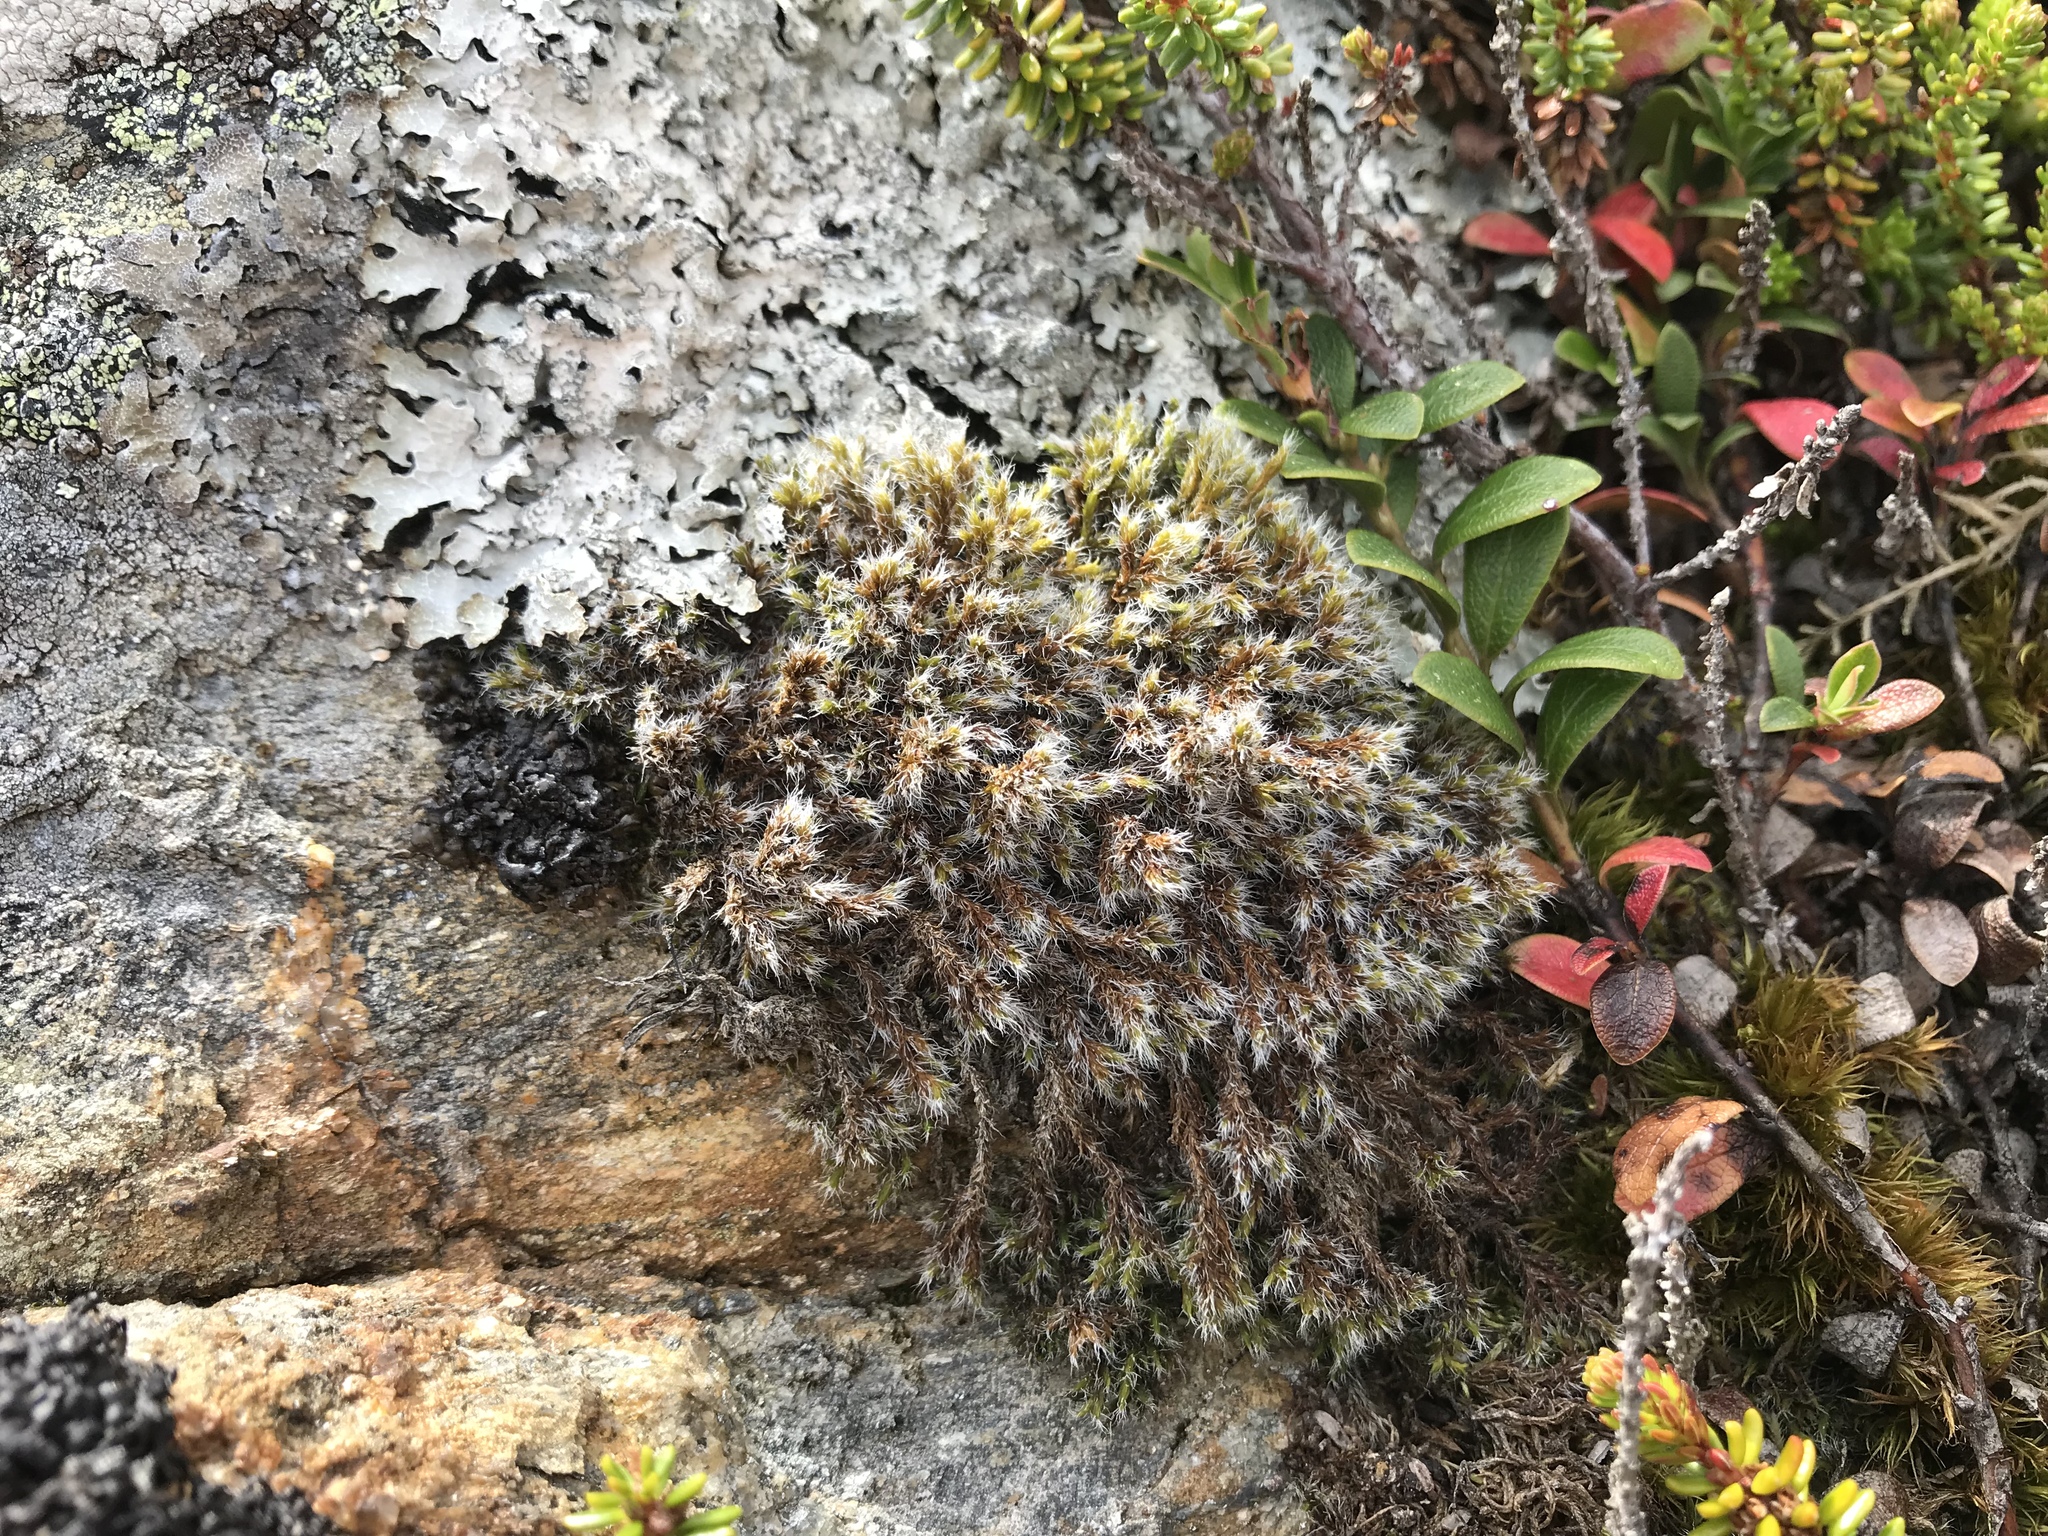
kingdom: Plantae
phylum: Bryophyta
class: Bryopsida
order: Grimmiales
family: Grimmiaceae
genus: Bucklandiella
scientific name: Bucklandiella heterosticha
